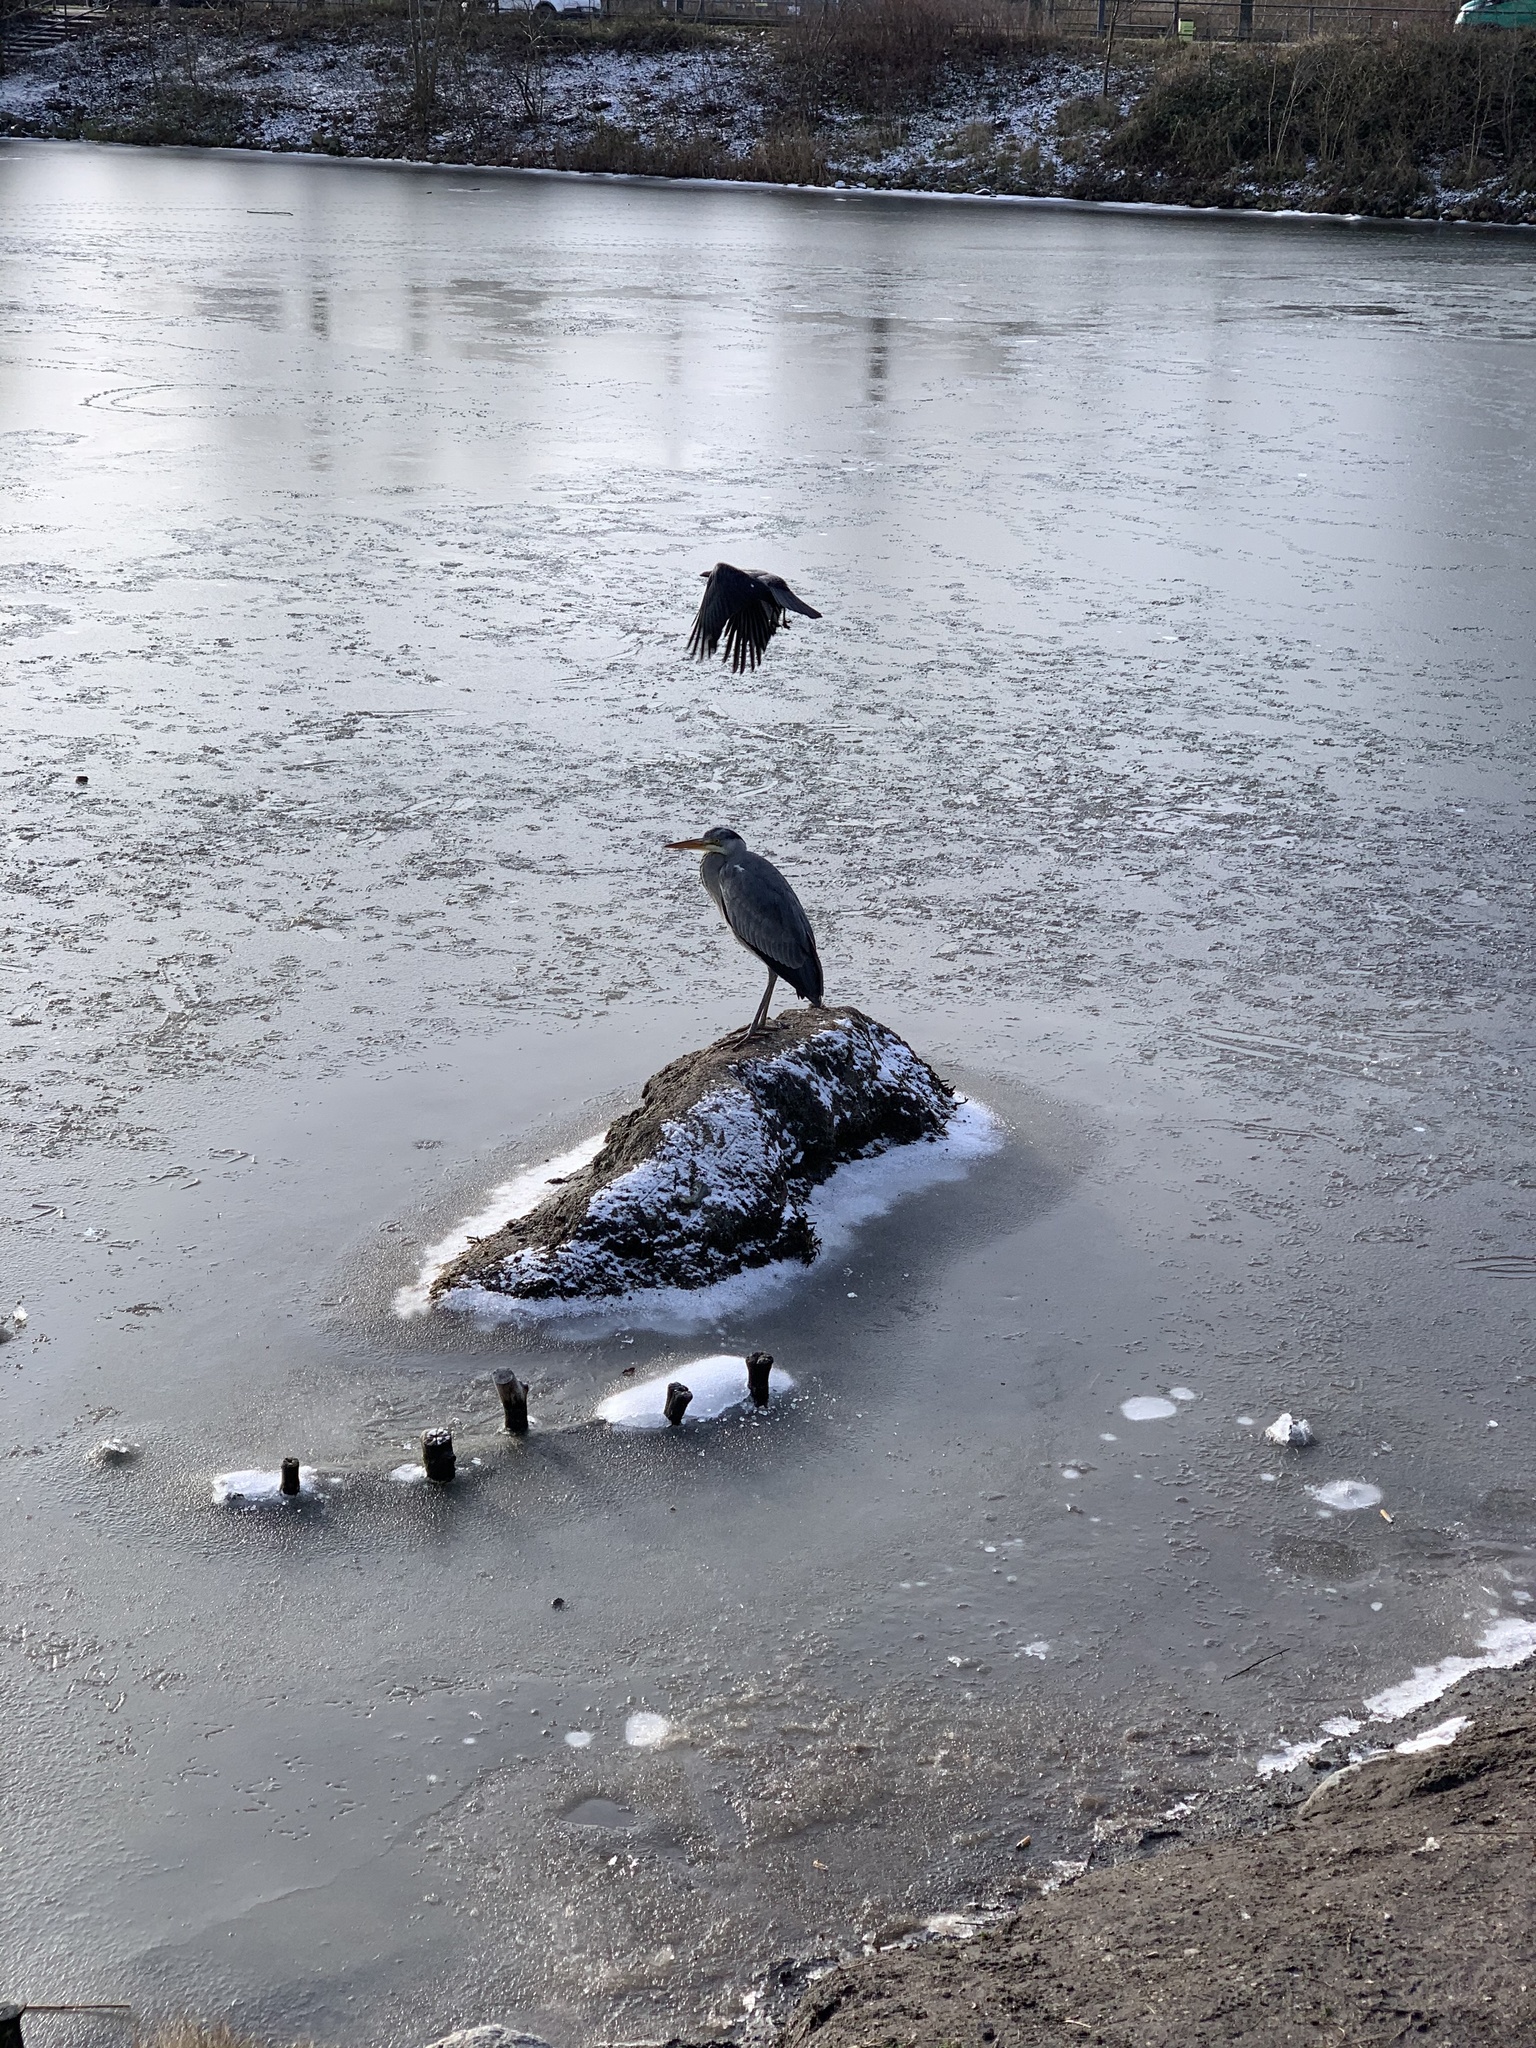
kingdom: Animalia
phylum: Chordata
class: Aves
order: Pelecaniformes
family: Ardeidae
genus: Ardea
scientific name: Ardea cinerea
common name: Grey heron
